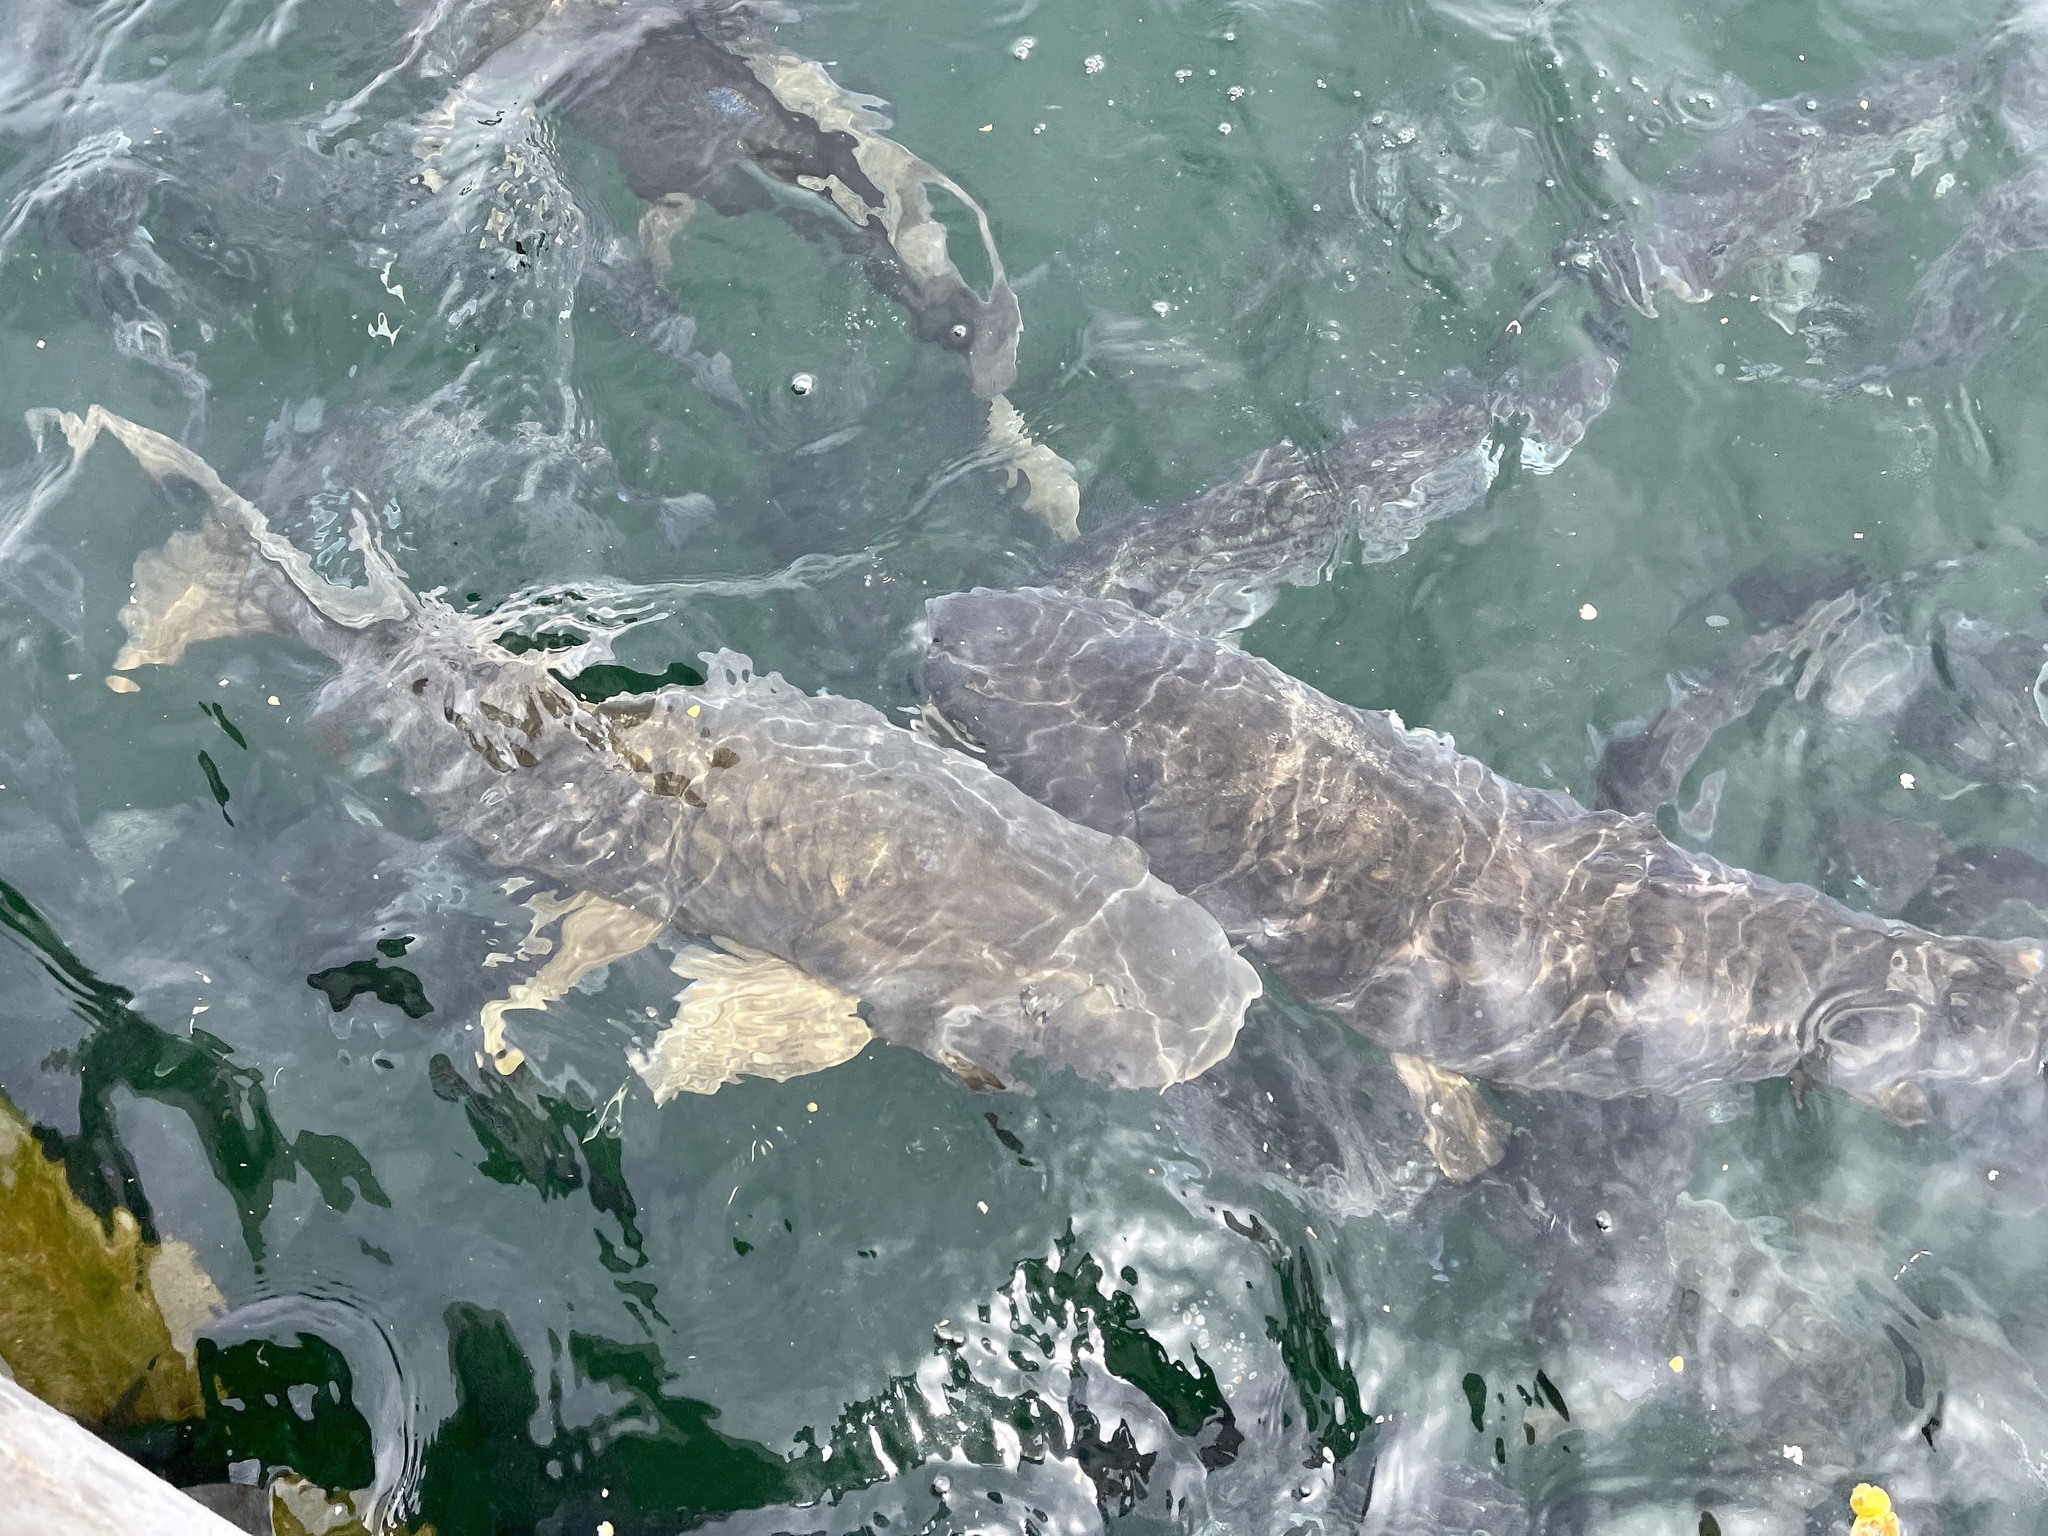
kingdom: Animalia
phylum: Chordata
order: Cypriniformes
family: Cyprinidae
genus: Cyprinus
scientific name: Cyprinus carpio
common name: Common carp
